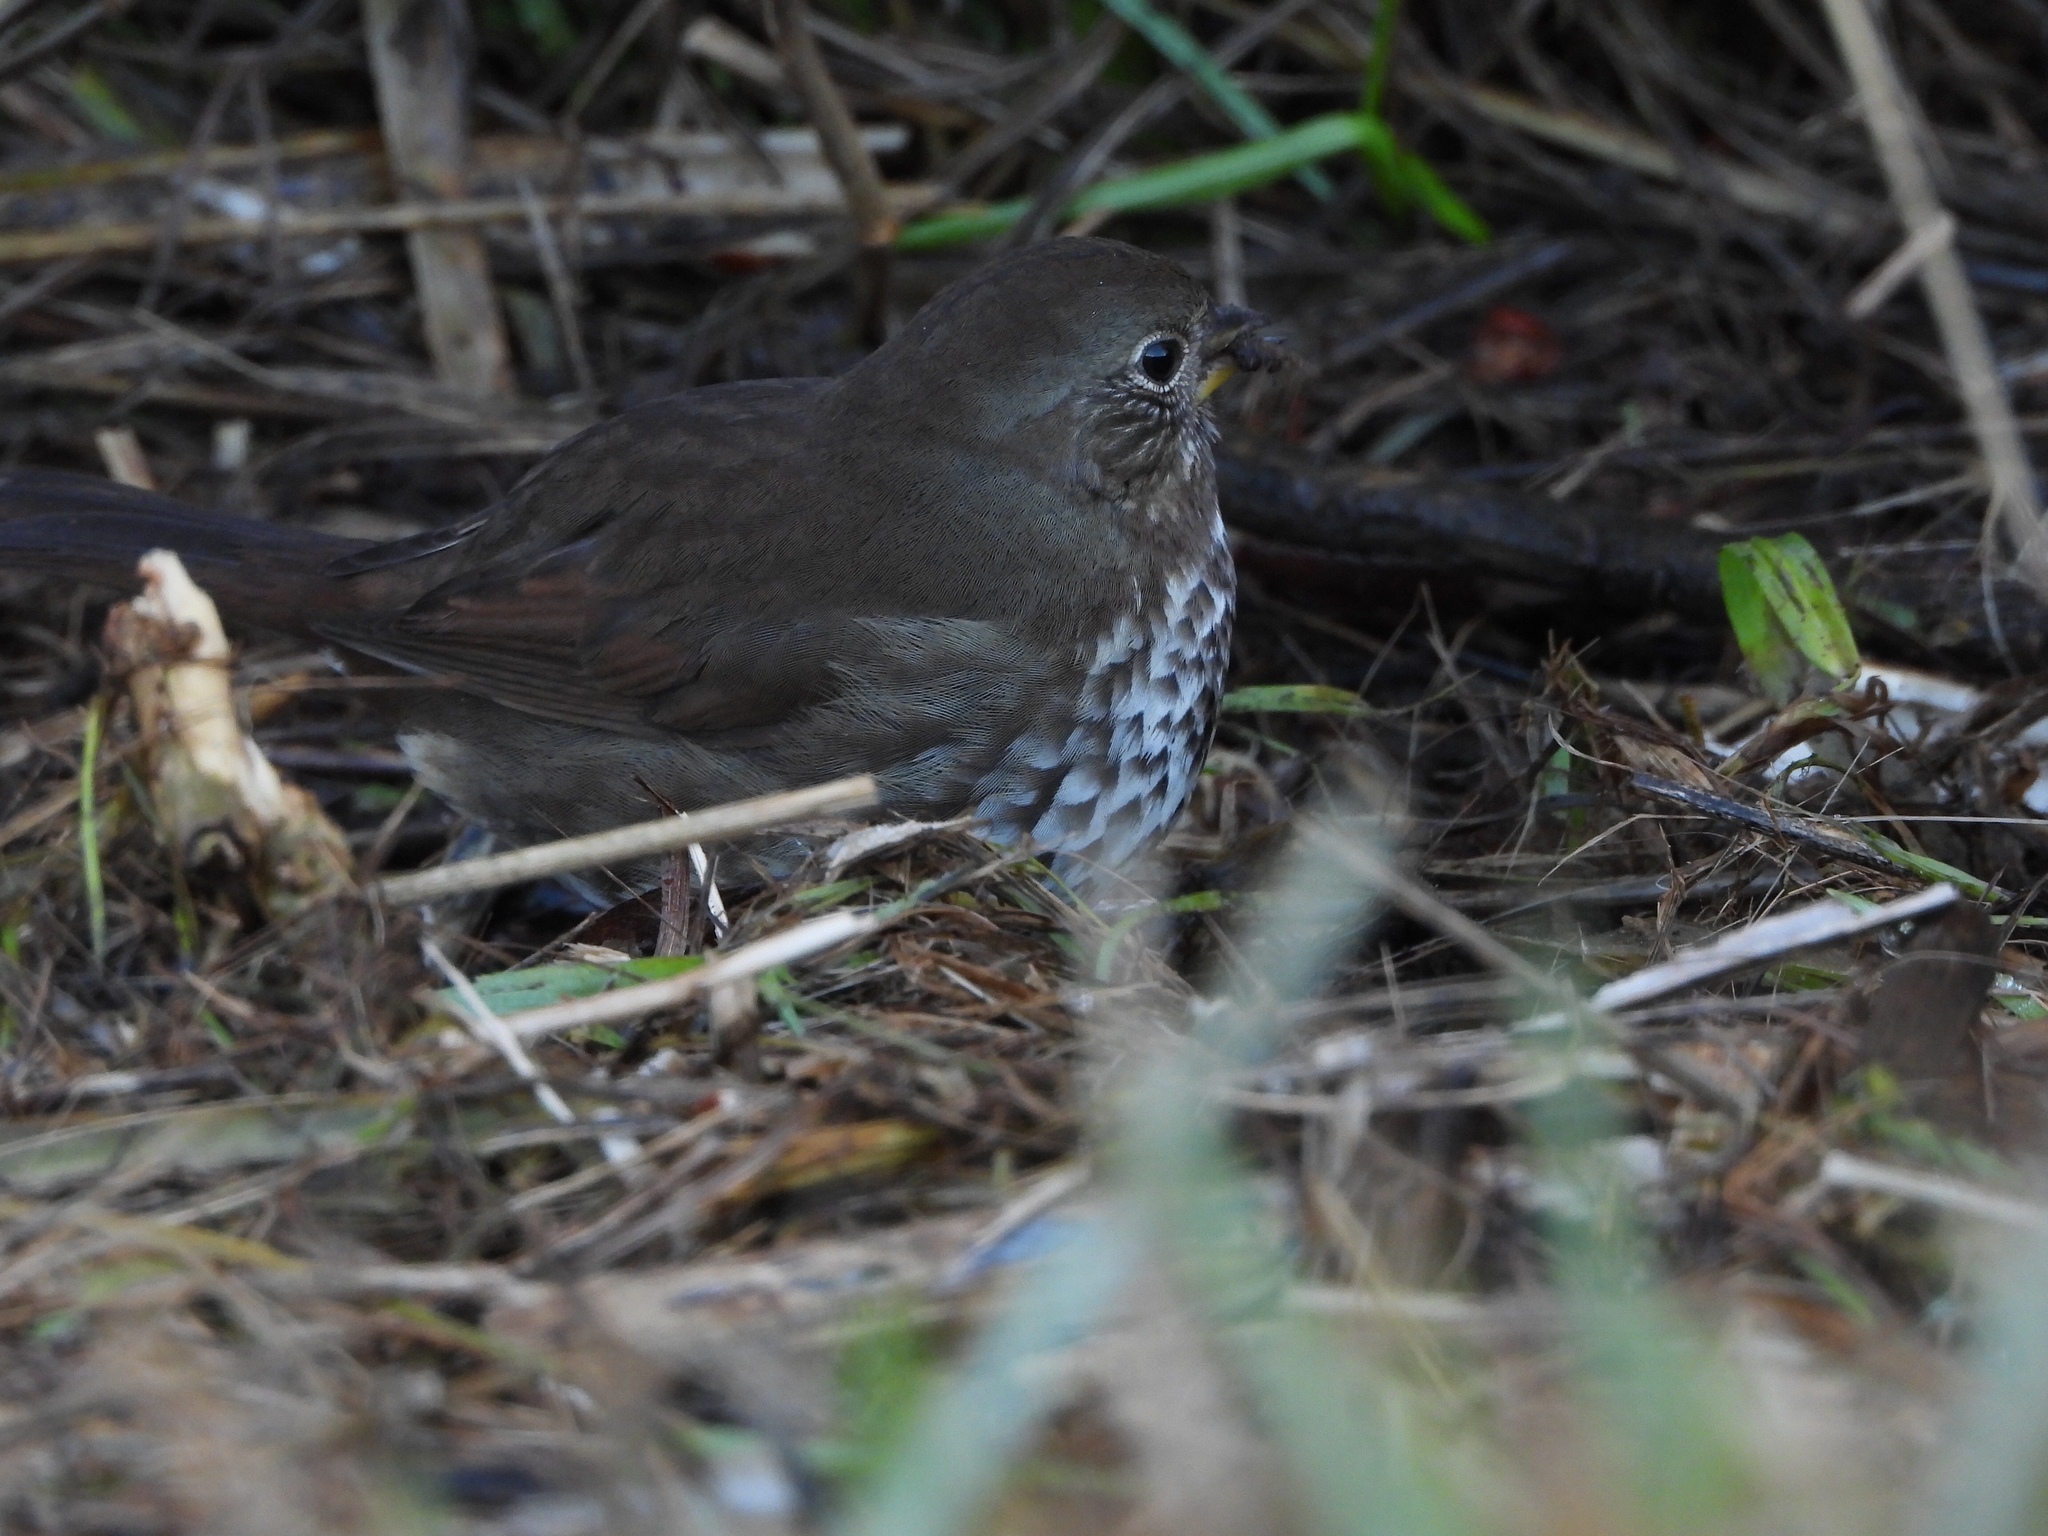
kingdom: Animalia
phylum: Chordata
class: Aves
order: Passeriformes
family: Passerellidae
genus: Passerella
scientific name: Passerella iliaca
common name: Fox sparrow
